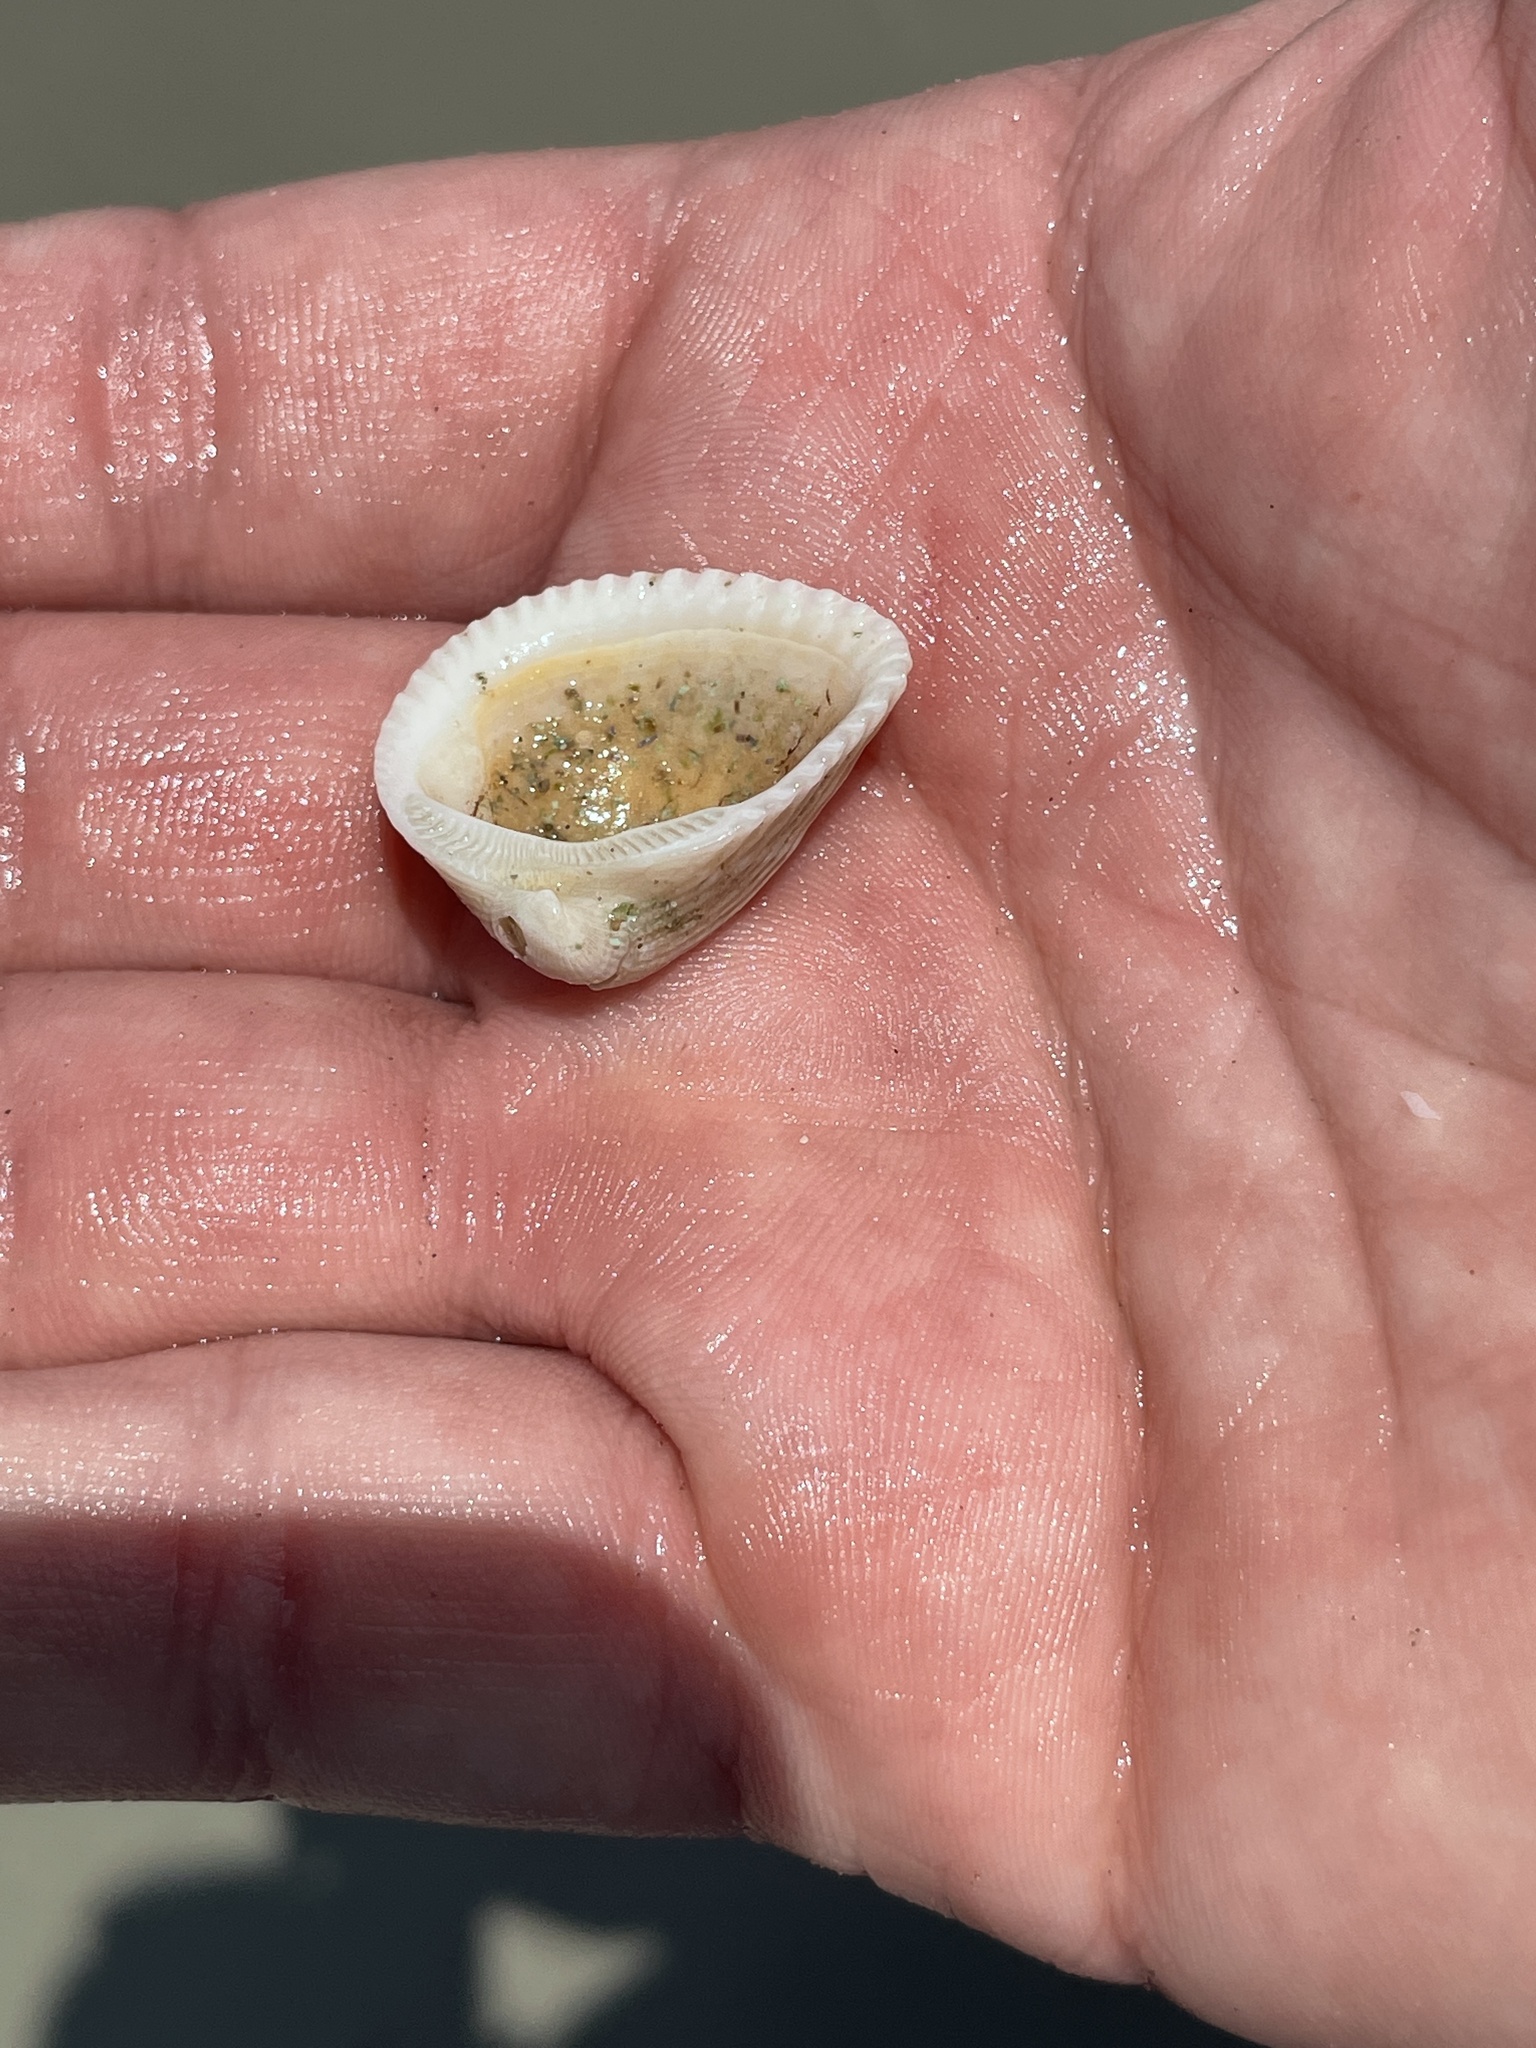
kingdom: Animalia
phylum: Mollusca
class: Bivalvia
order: Arcida
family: Noetiidae
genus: Noetia
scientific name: Noetia ponderosa
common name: Ponderous ark
